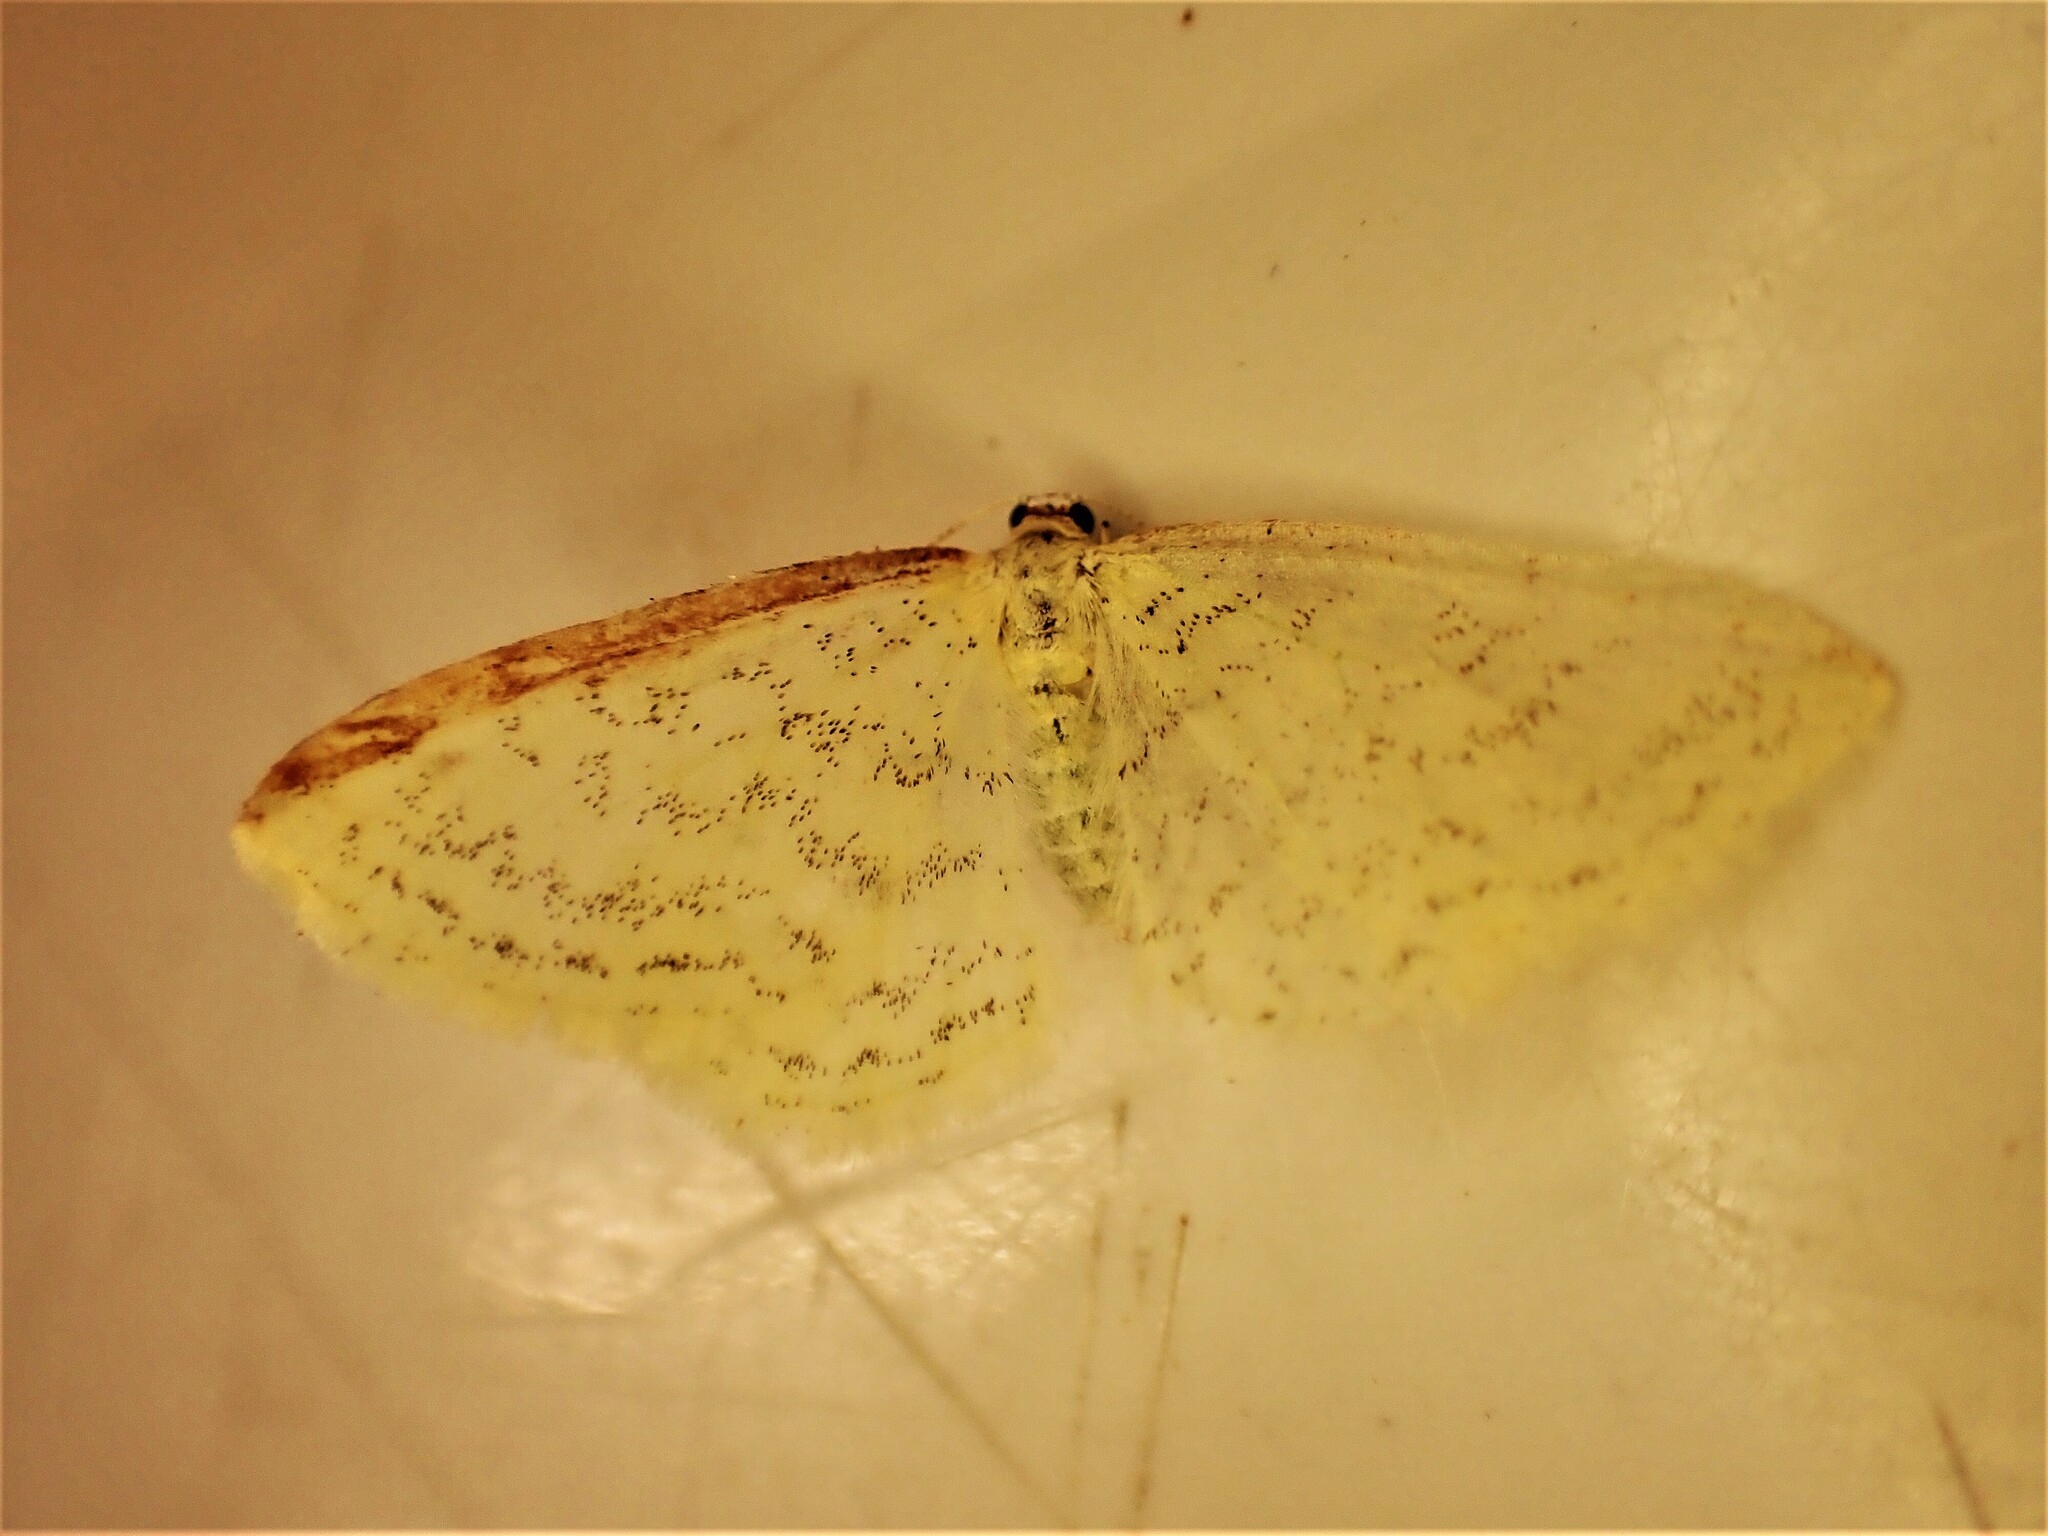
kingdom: Animalia
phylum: Arthropoda
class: Insecta
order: Lepidoptera
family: Geometridae
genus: Epiphryne
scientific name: Epiphryne undosata
